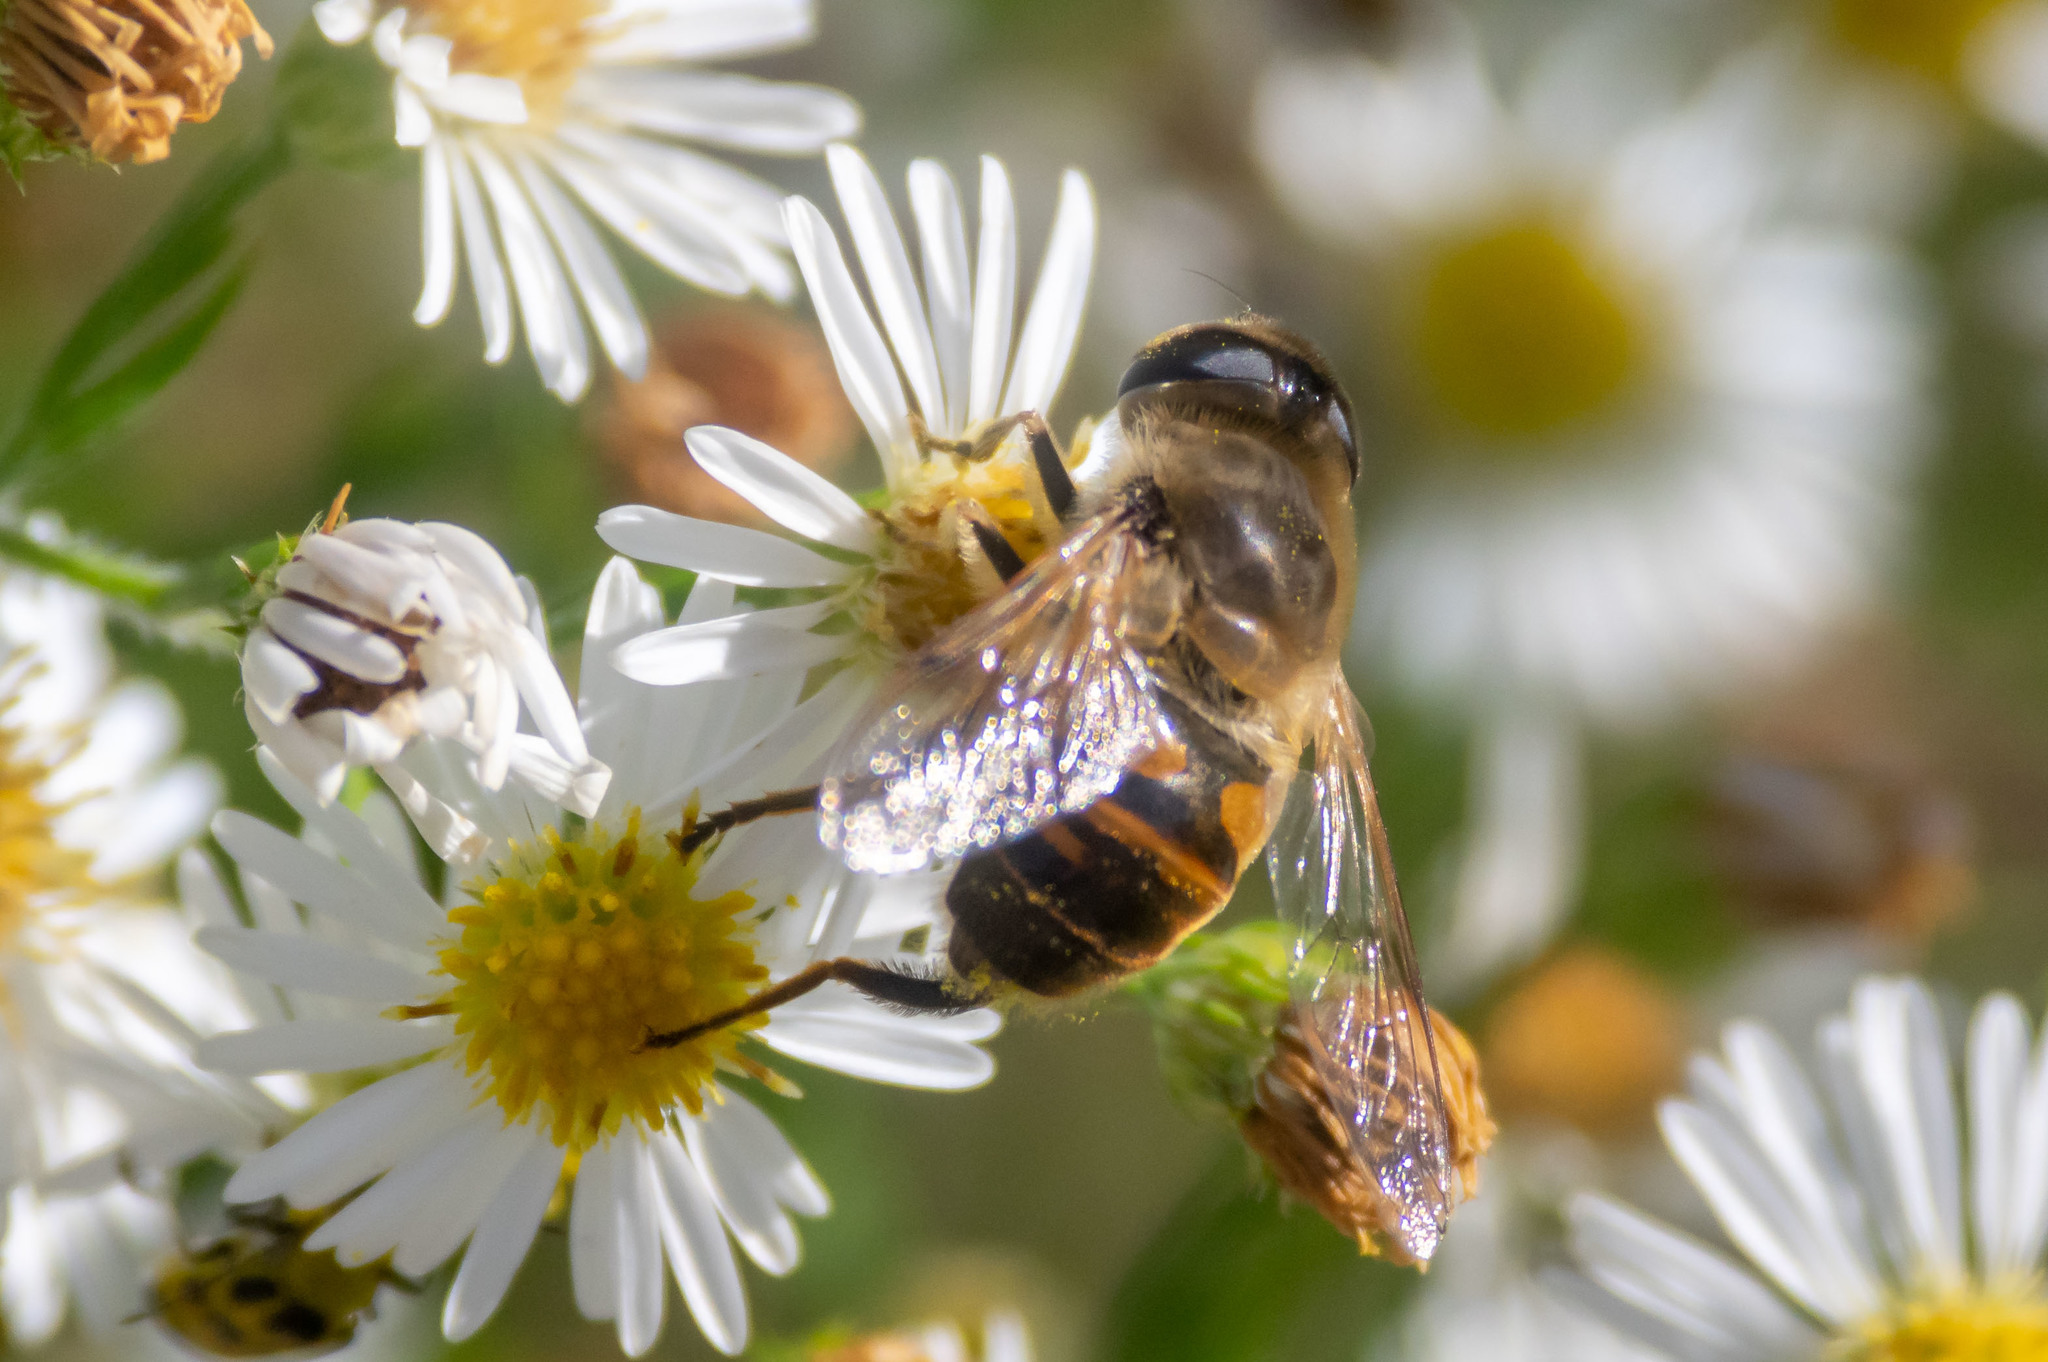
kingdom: Animalia
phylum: Arthropoda
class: Insecta
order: Diptera
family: Syrphidae
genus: Eristalis
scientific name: Eristalis tenax
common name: Drone fly
